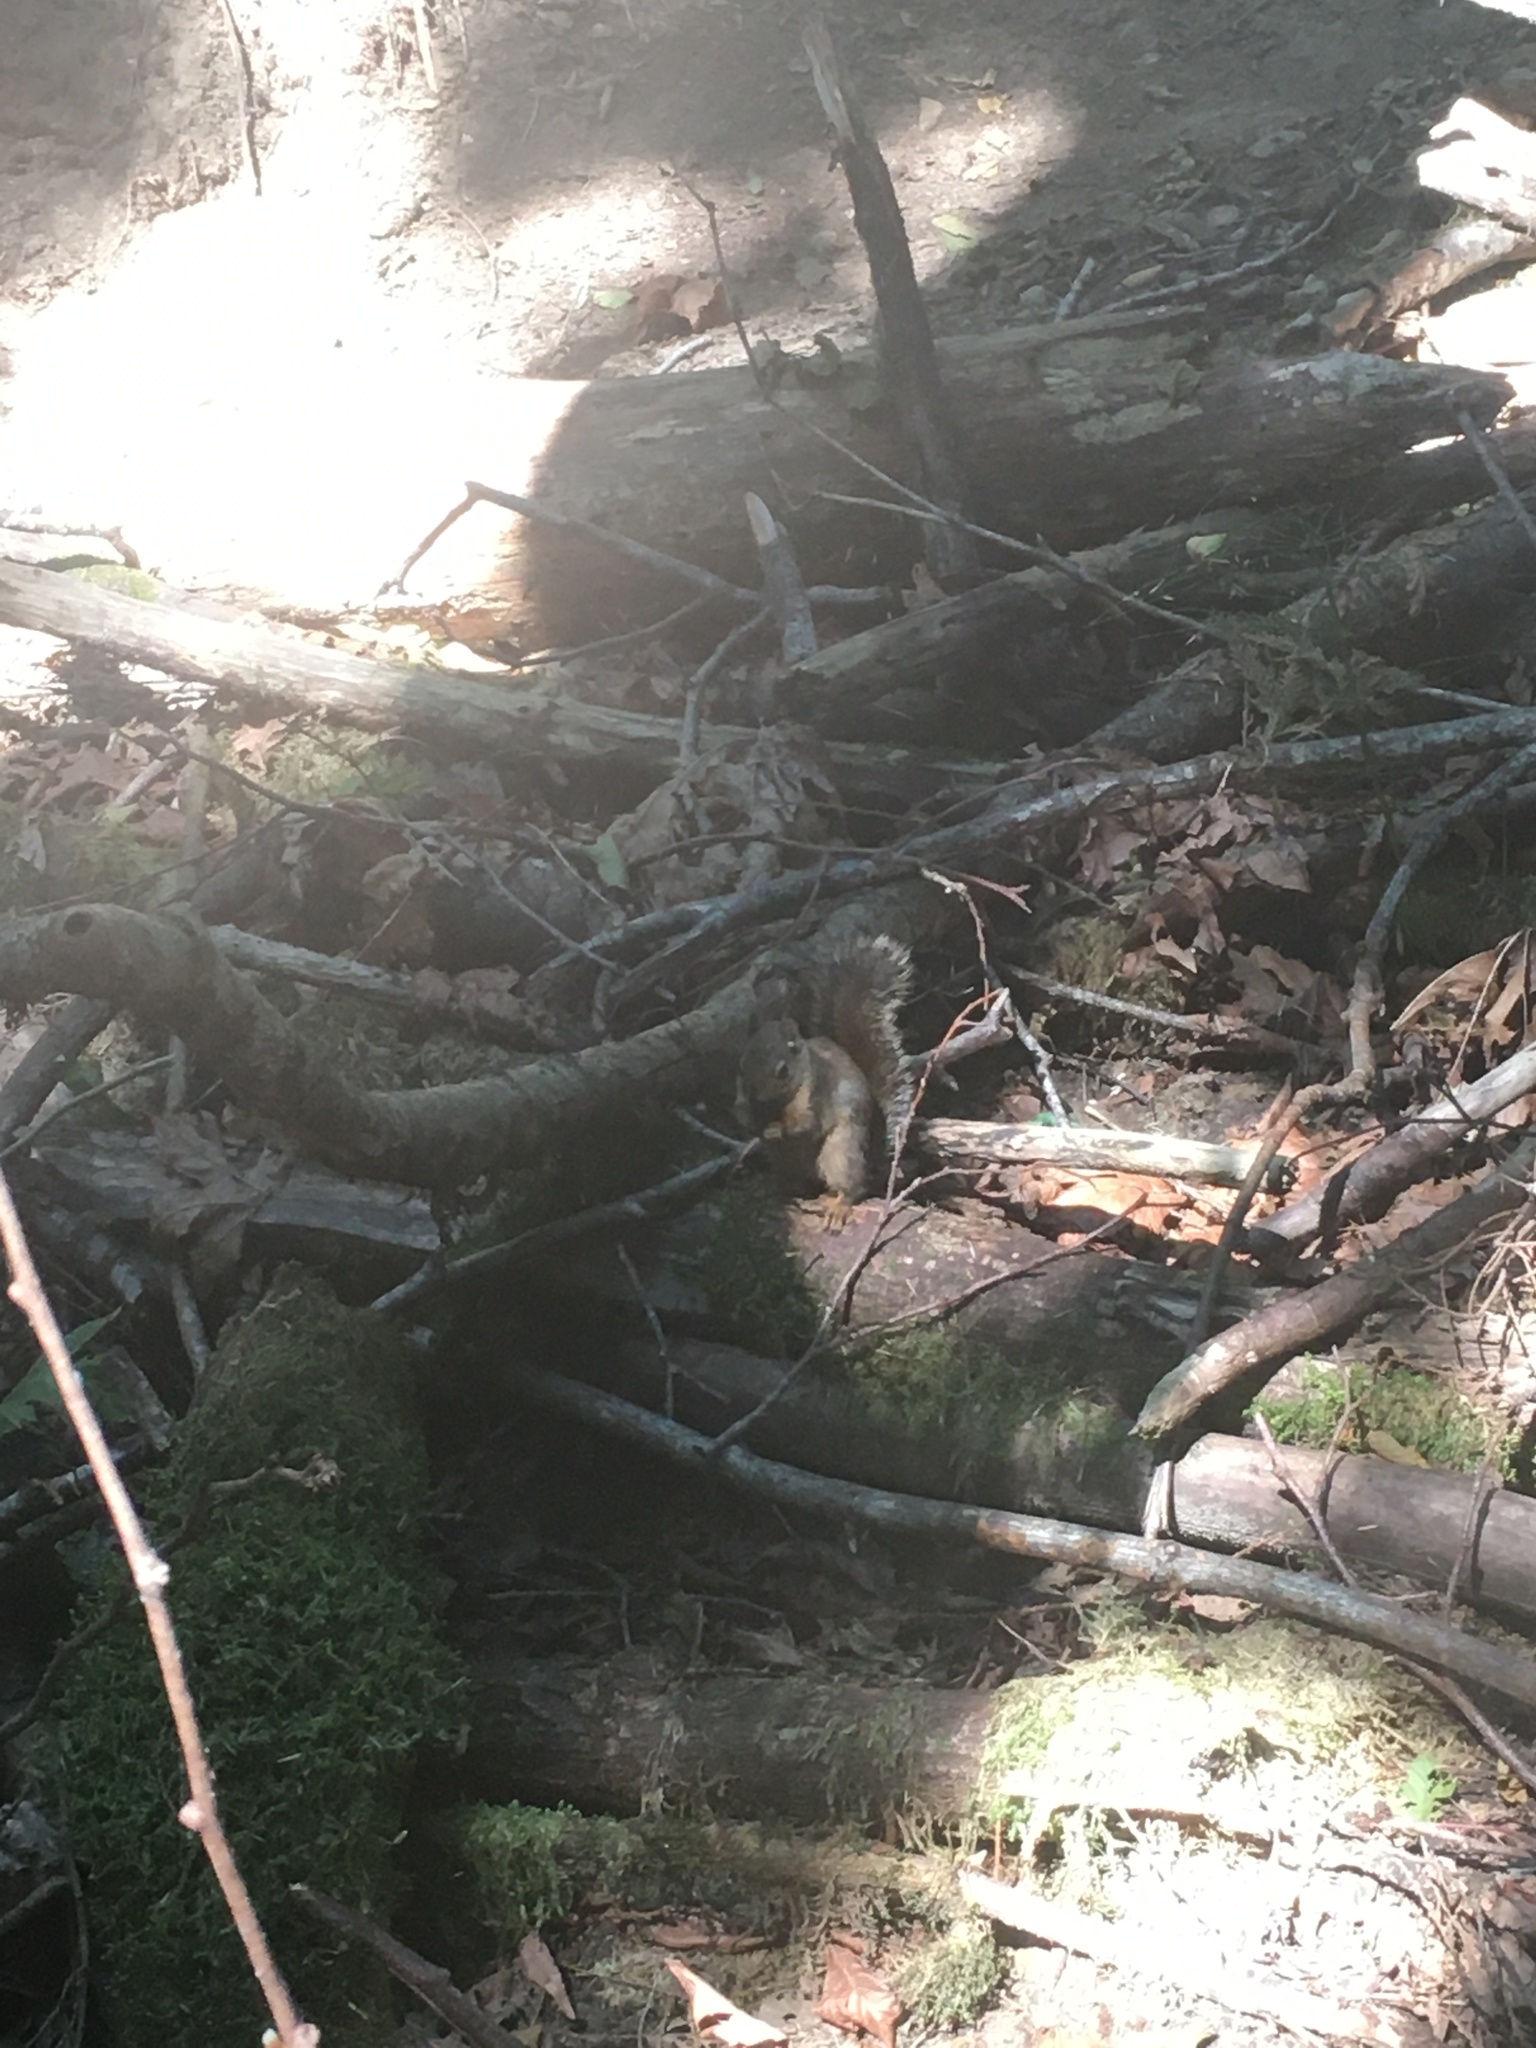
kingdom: Animalia
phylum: Chordata
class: Mammalia
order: Rodentia
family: Sciuridae
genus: Tamiasciurus
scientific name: Tamiasciurus douglasii
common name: Douglas's squirrel
